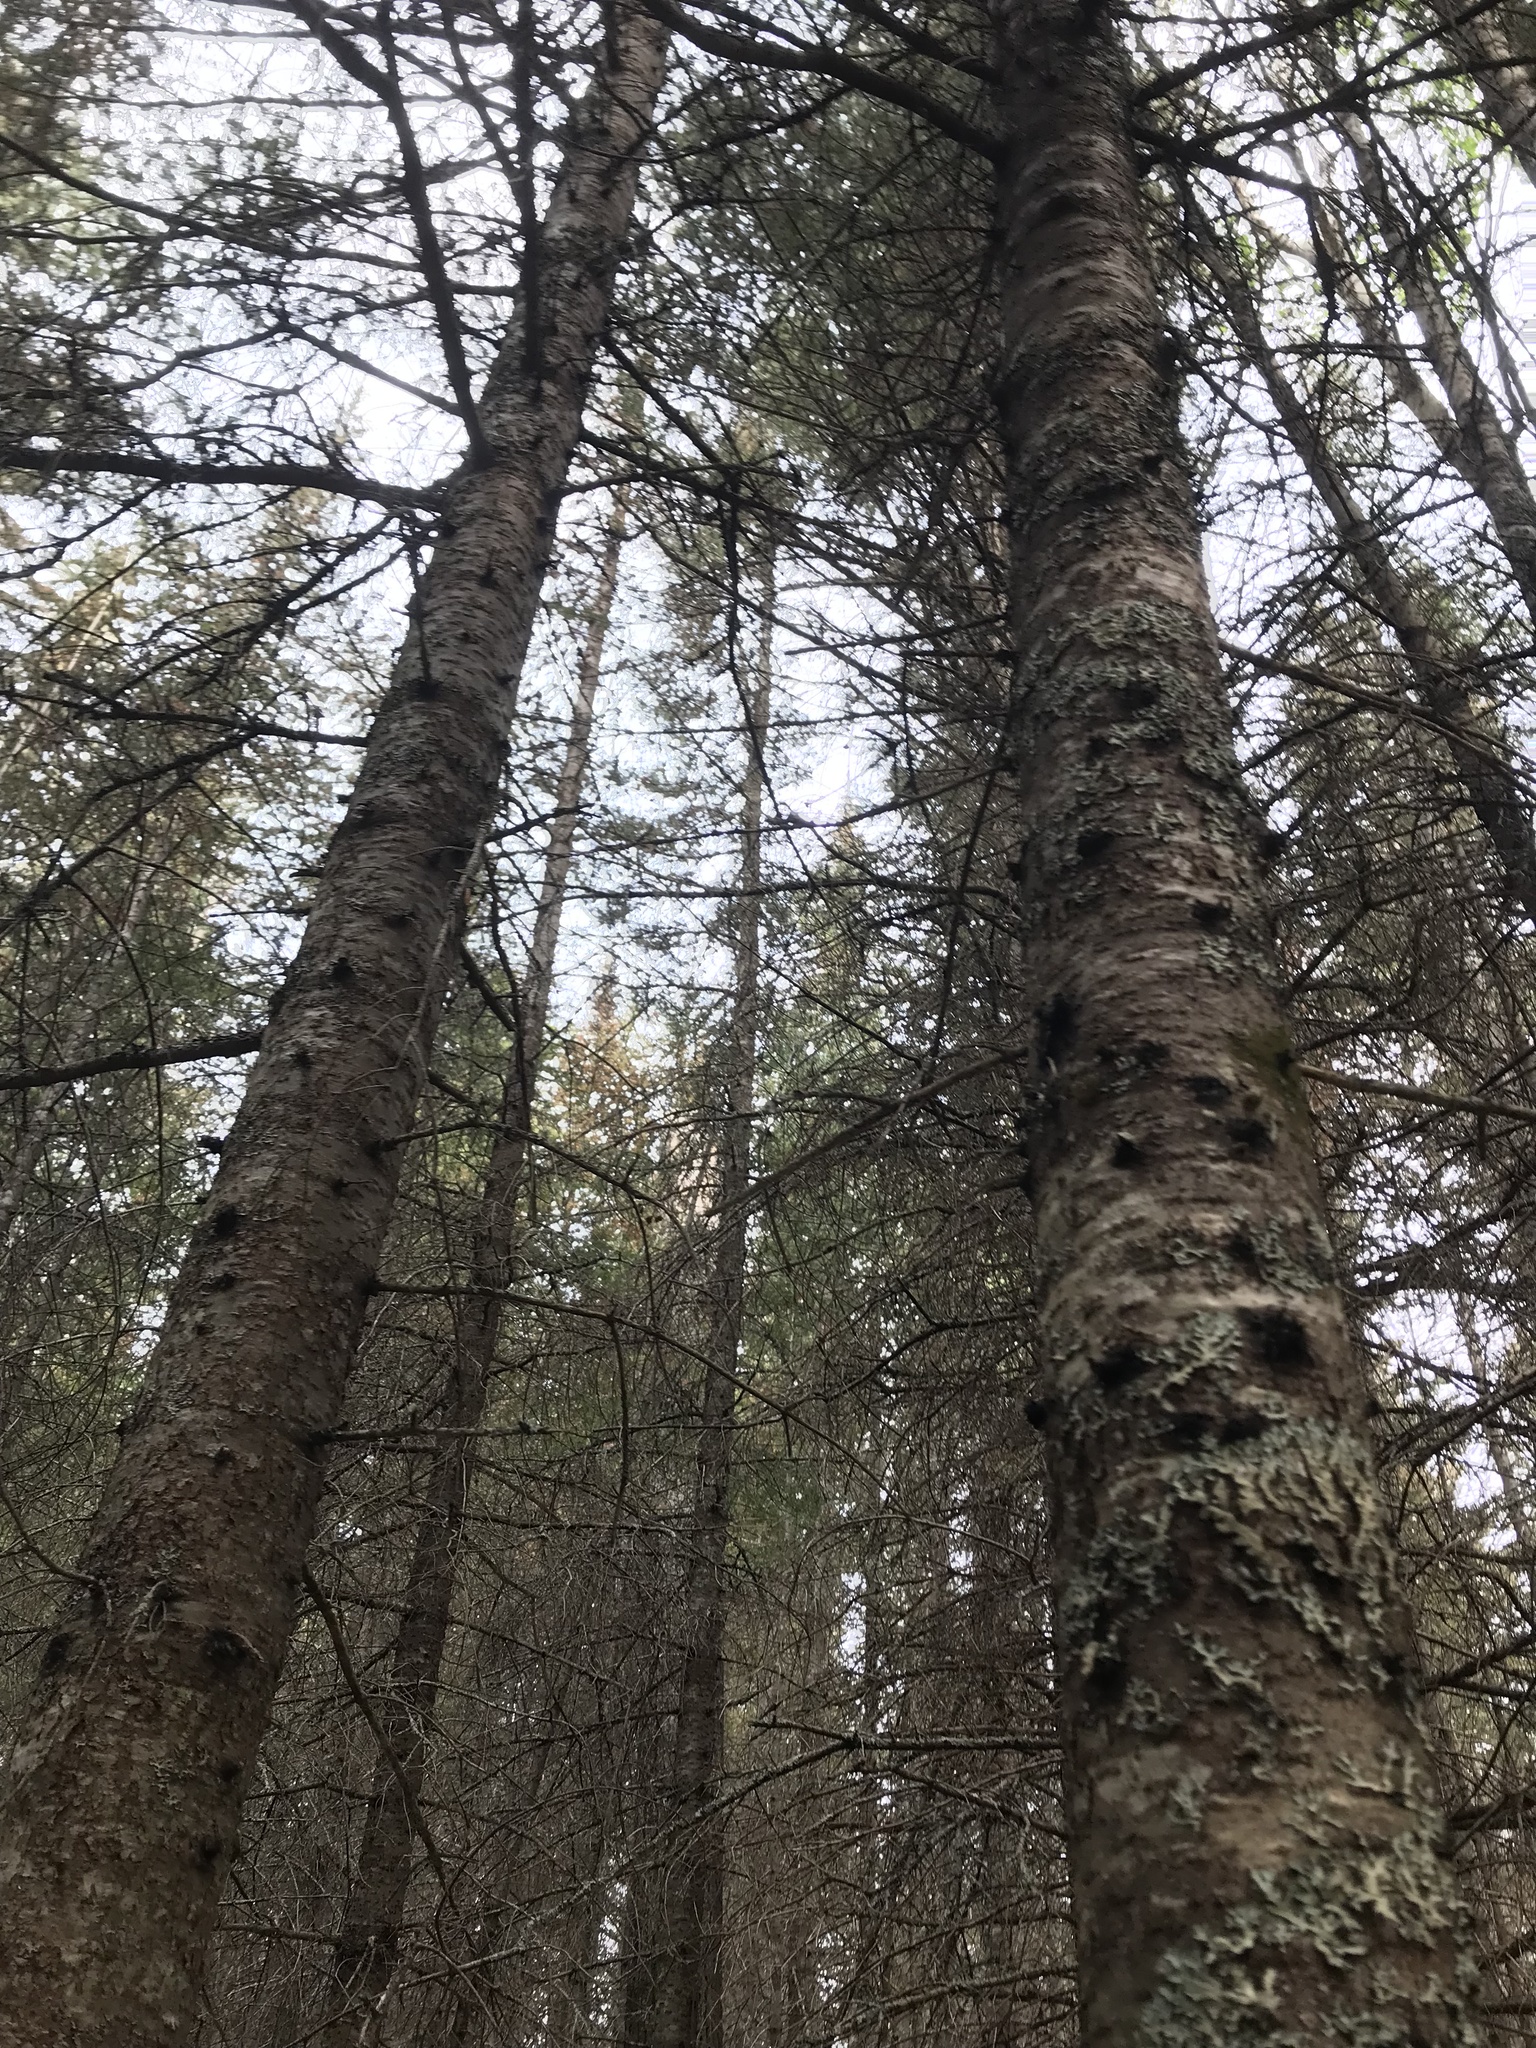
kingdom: Plantae
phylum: Tracheophyta
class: Pinopsida
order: Pinales
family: Pinaceae
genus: Abies
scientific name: Abies balsamea
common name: Balsam fir
